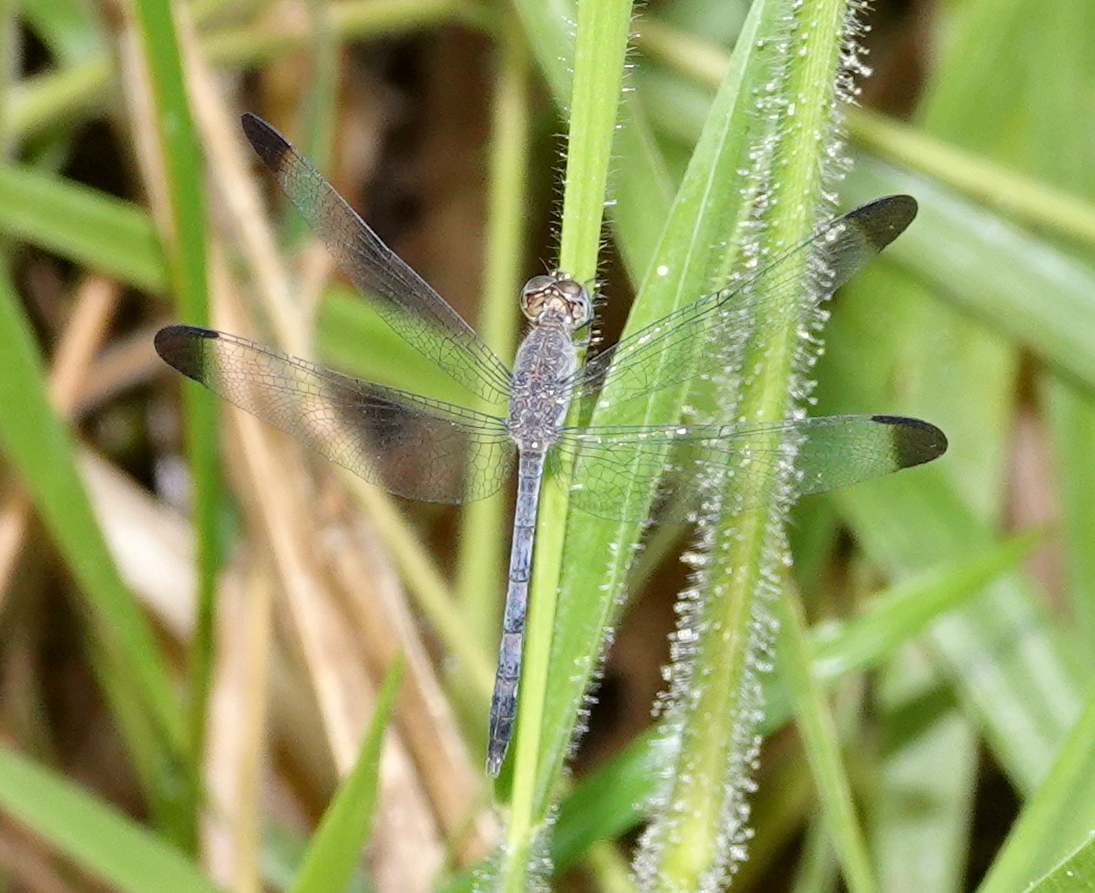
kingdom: Animalia
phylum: Arthropoda
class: Insecta
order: Odonata
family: Libellulidae
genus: Uracis
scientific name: Uracis imbuta
